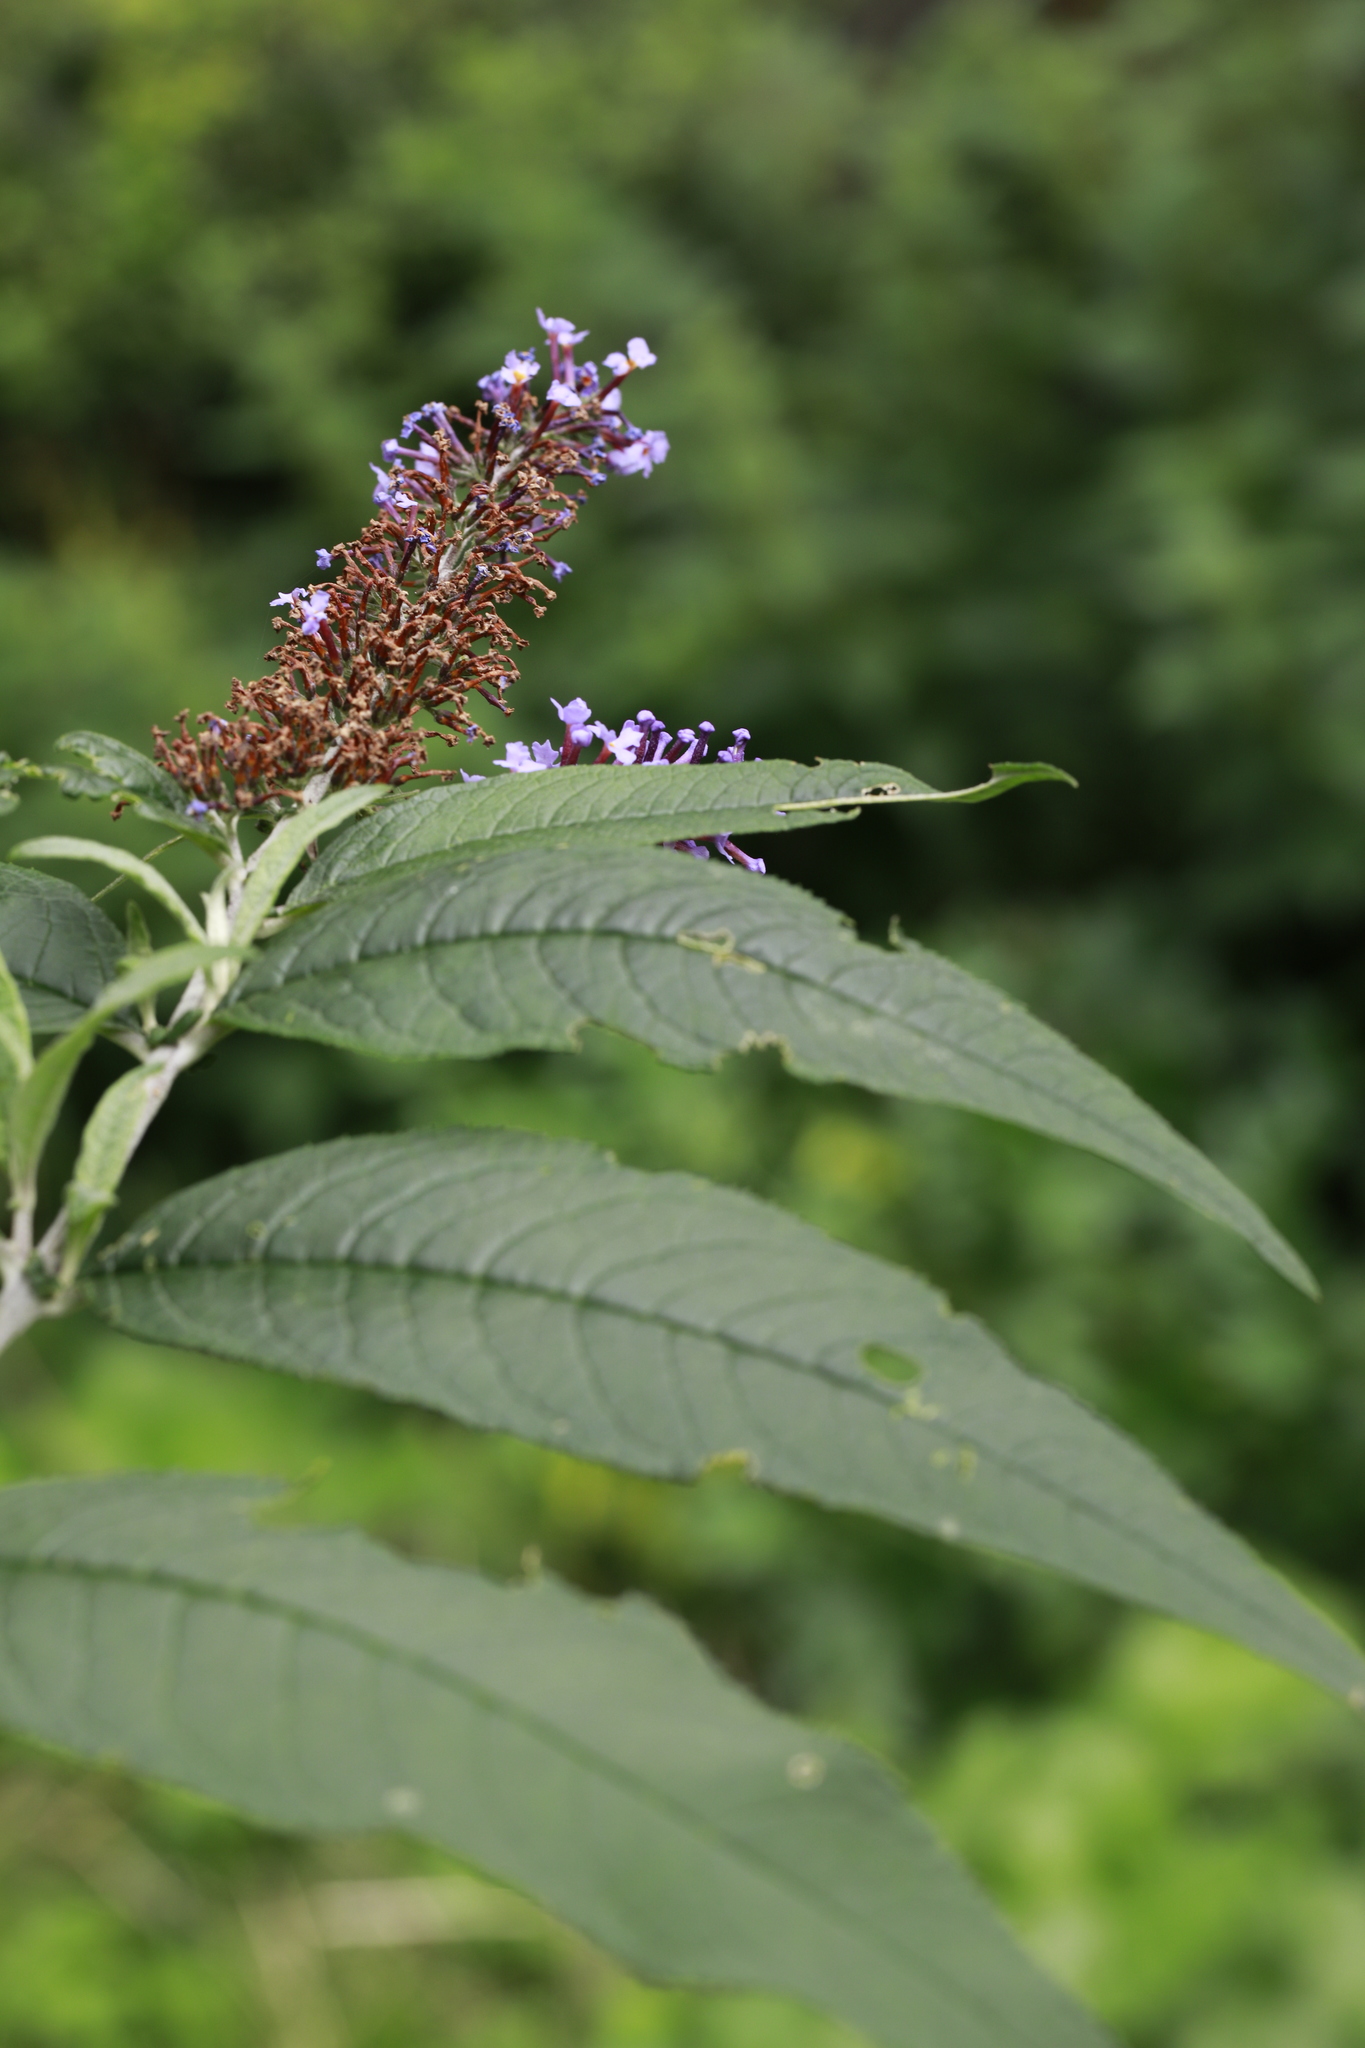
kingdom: Plantae
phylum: Tracheophyta
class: Magnoliopsida
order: Lamiales
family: Scrophulariaceae
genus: Buddleja
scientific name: Buddleja davidii
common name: Butterfly-bush
